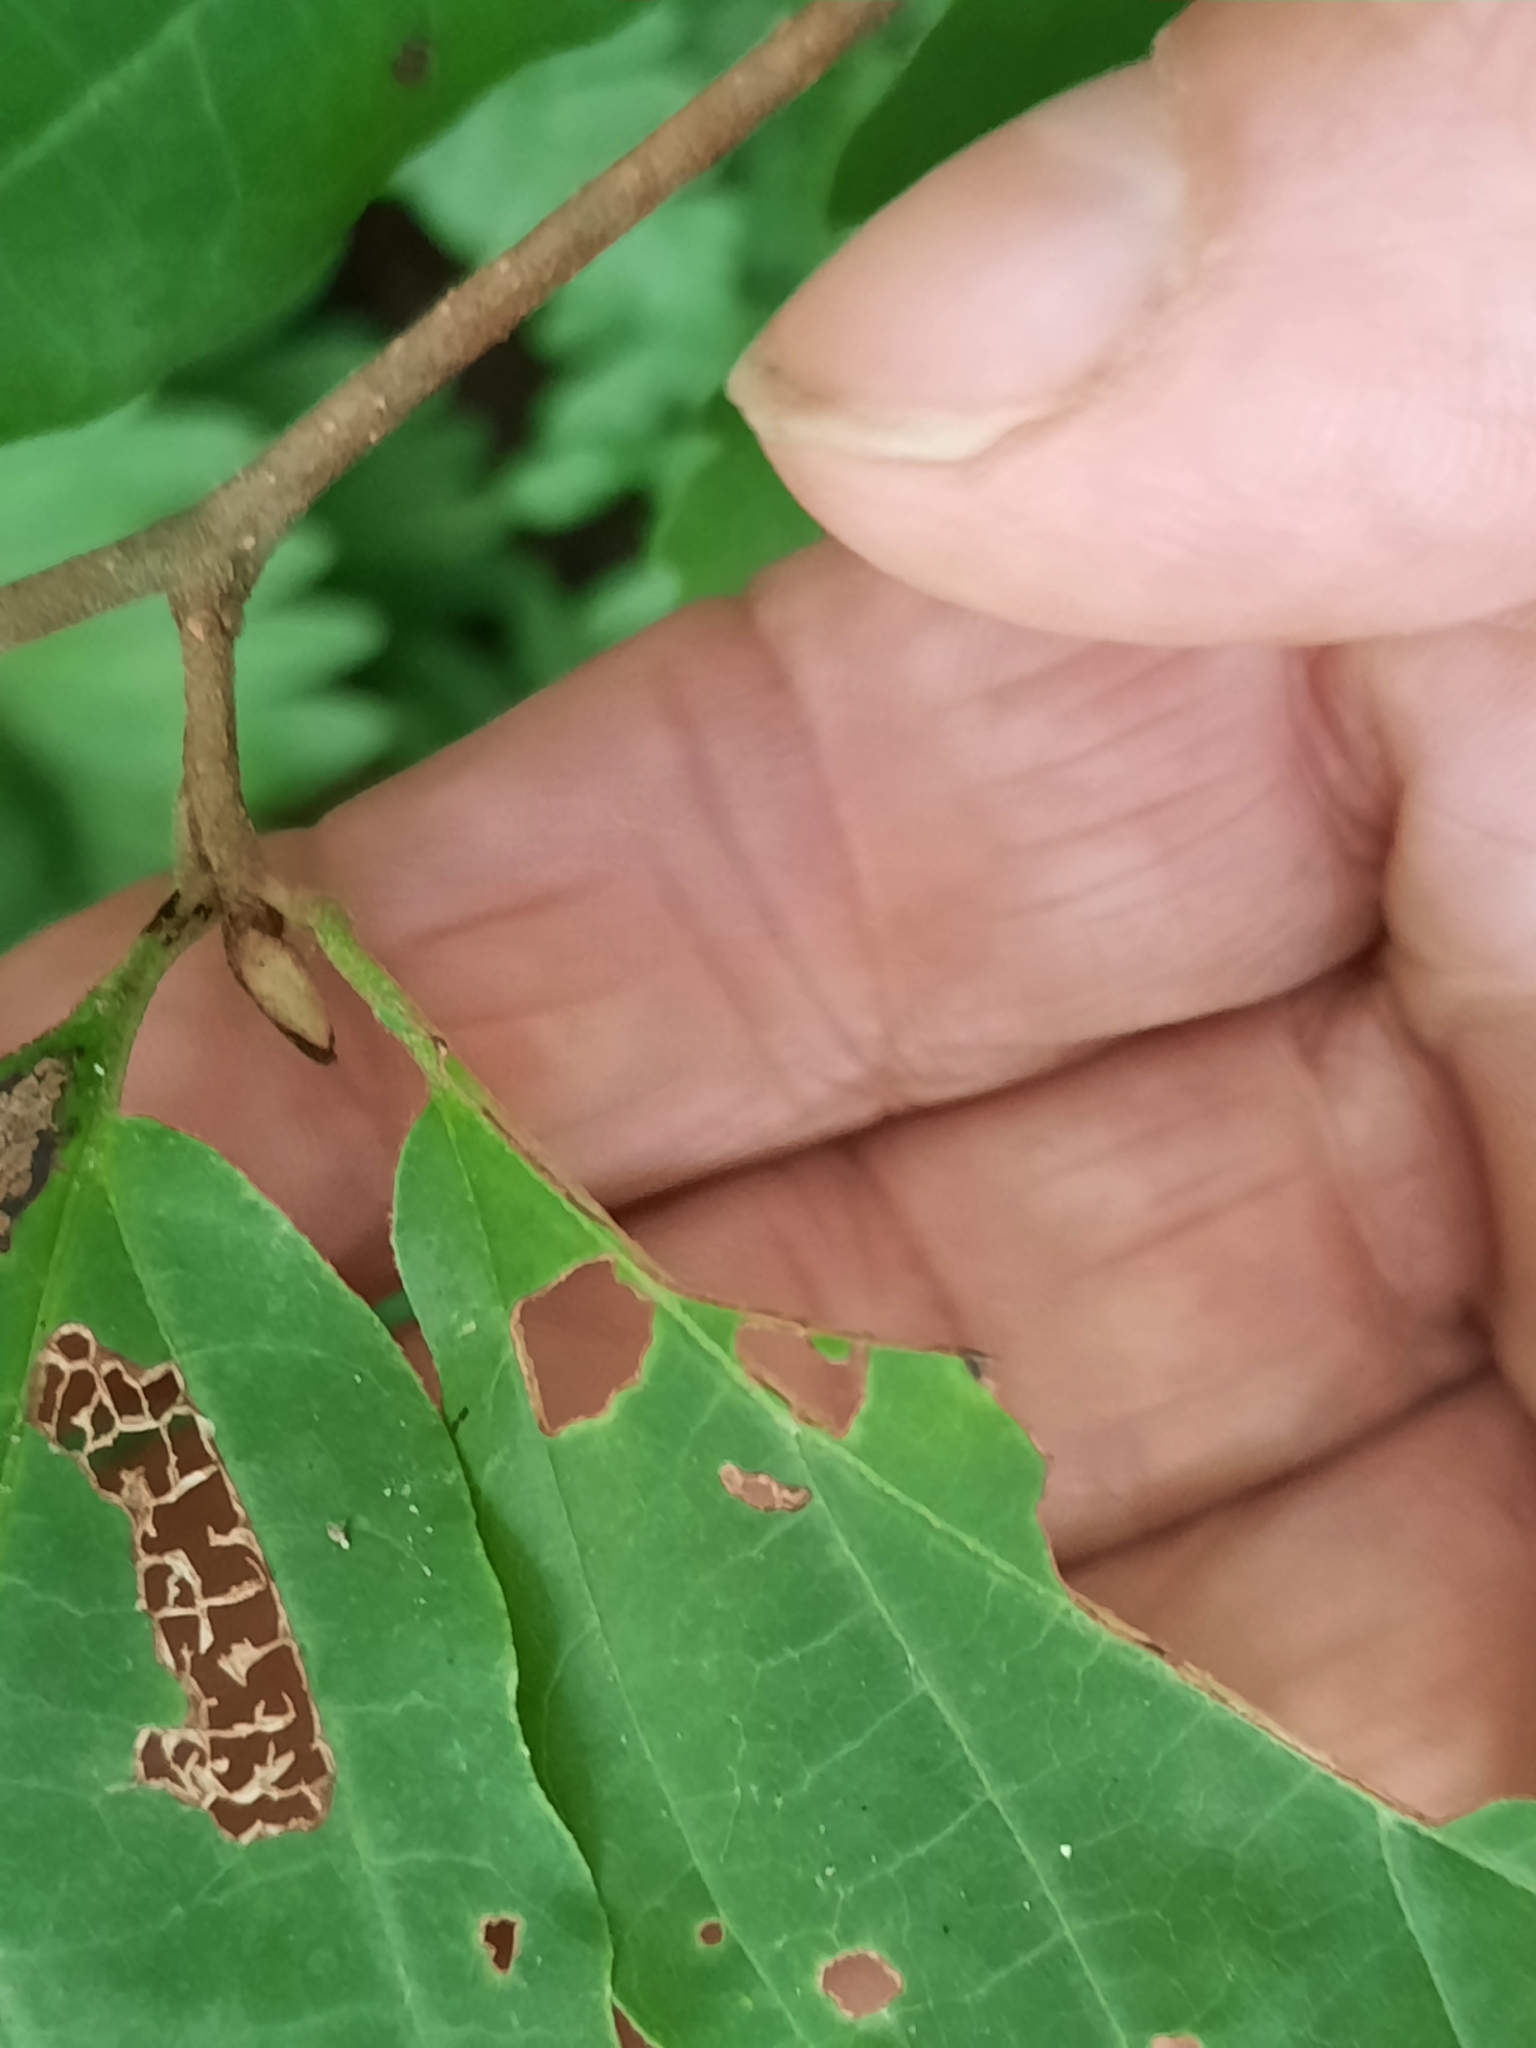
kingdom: Plantae
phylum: Tracheophyta
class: Magnoliopsida
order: Saxifragales
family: Hamamelidaceae
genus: Hamamelis
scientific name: Hamamelis virginiana
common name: Witch-hazel
